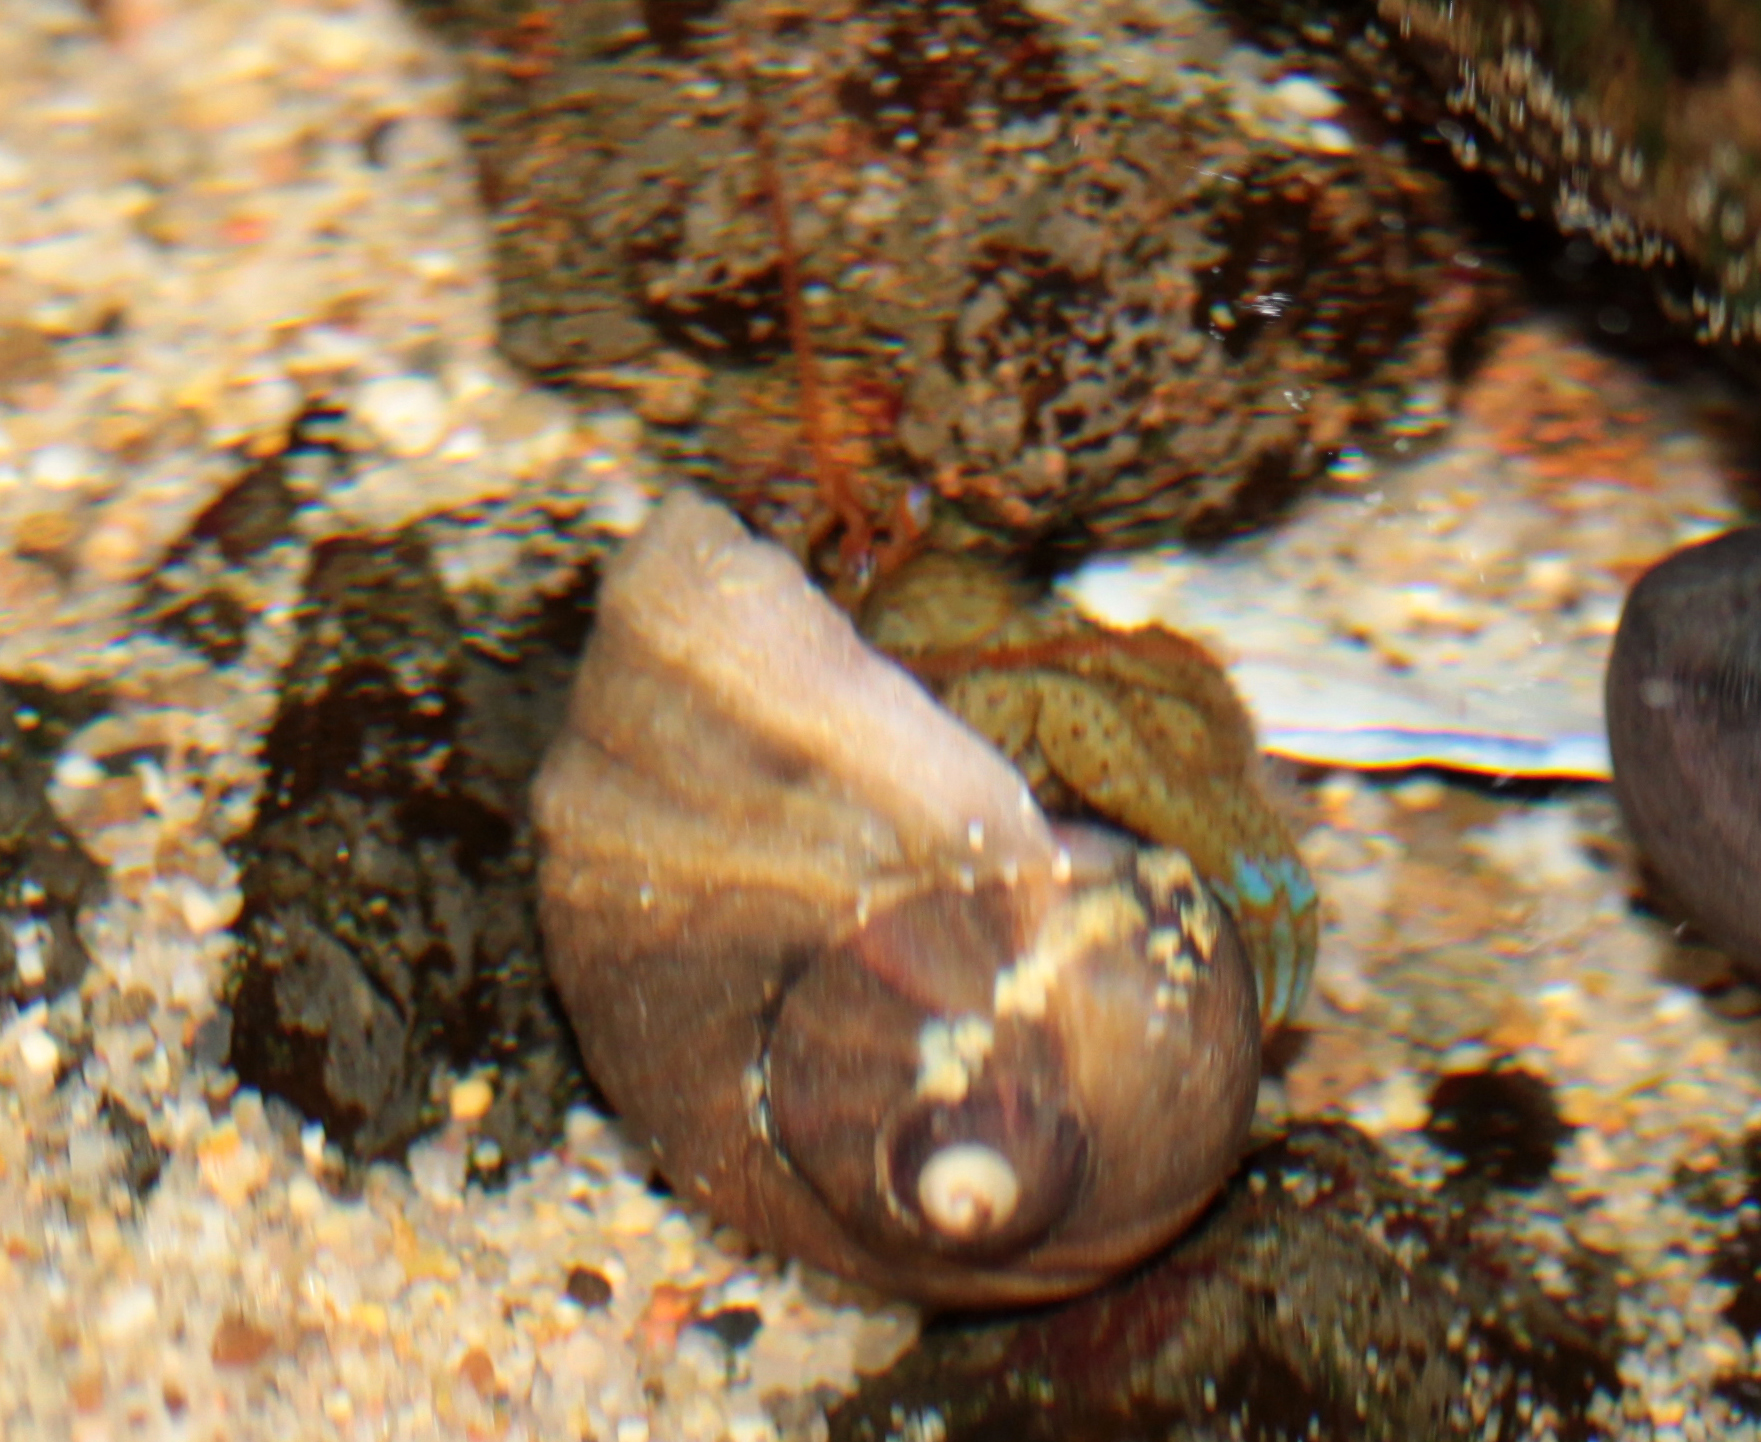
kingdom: Animalia
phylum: Arthropoda
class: Malacostraca
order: Decapoda
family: Paguridae
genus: Pagurus
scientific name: Pagurus samuelis
